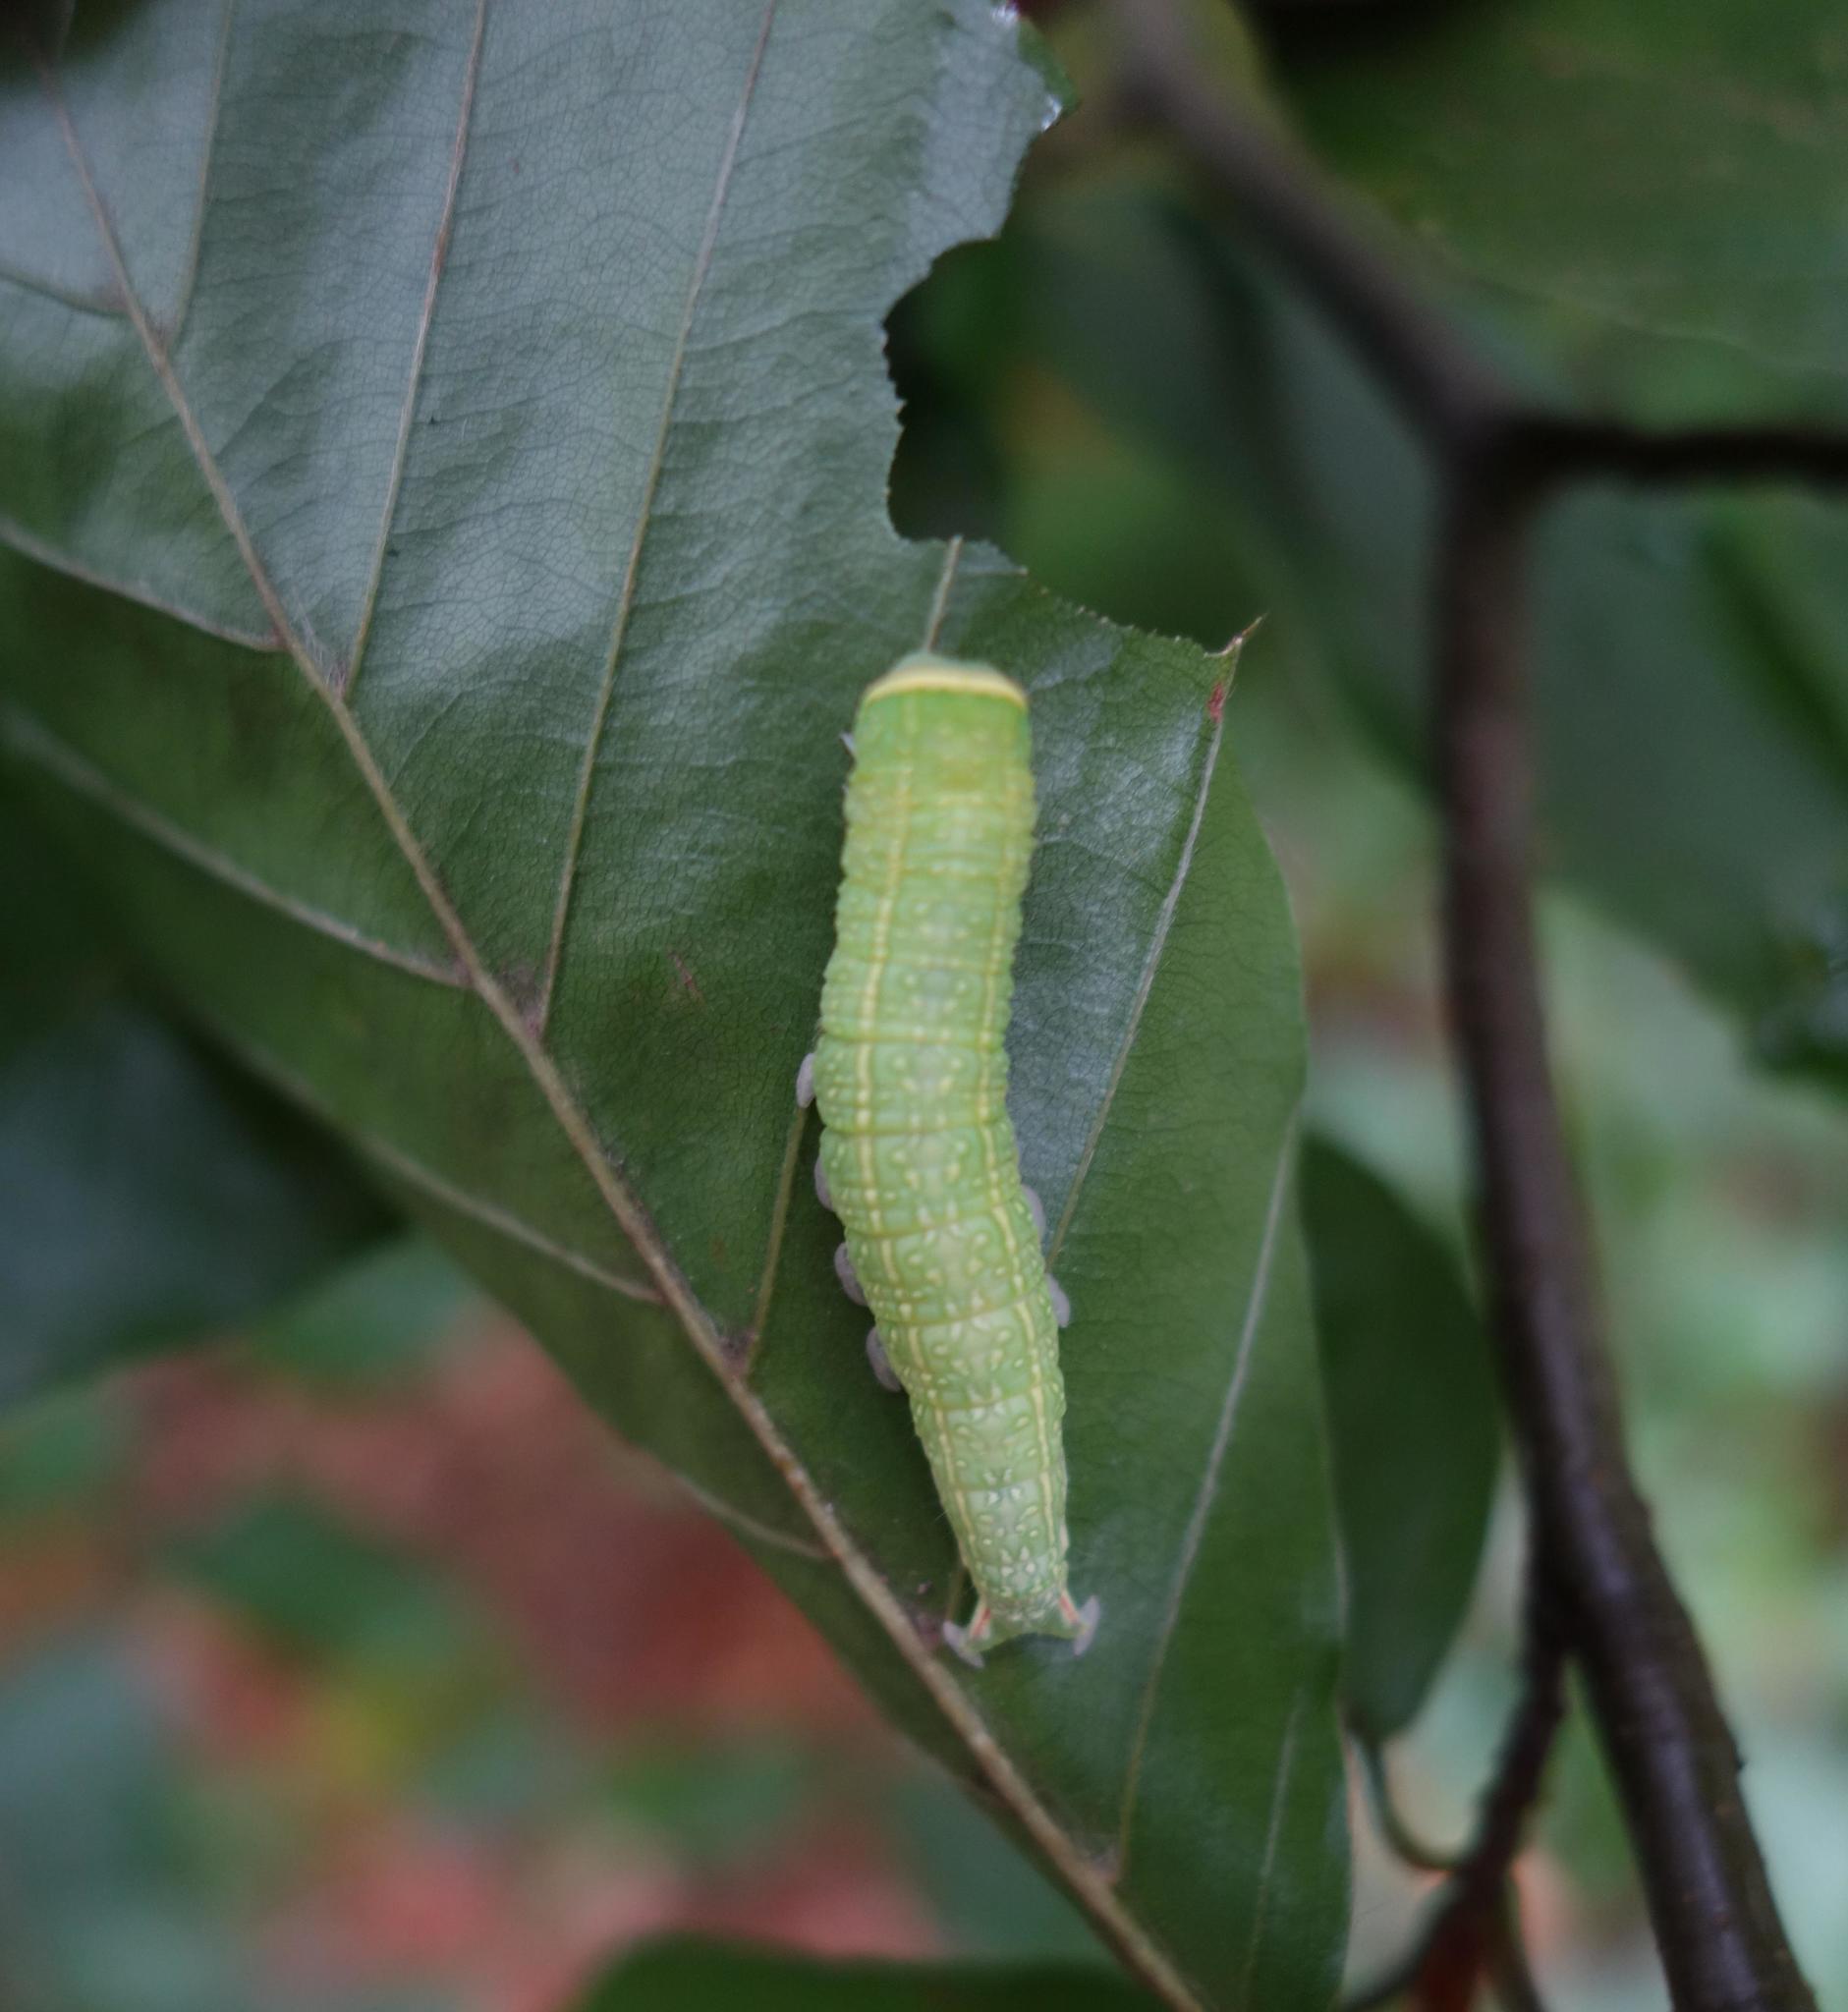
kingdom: Animalia
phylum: Arthropoda
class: Insecta
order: Lepidoptera
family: Nolidae
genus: Pseudoips
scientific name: Pseudoips prasinana
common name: Green silver-lines
